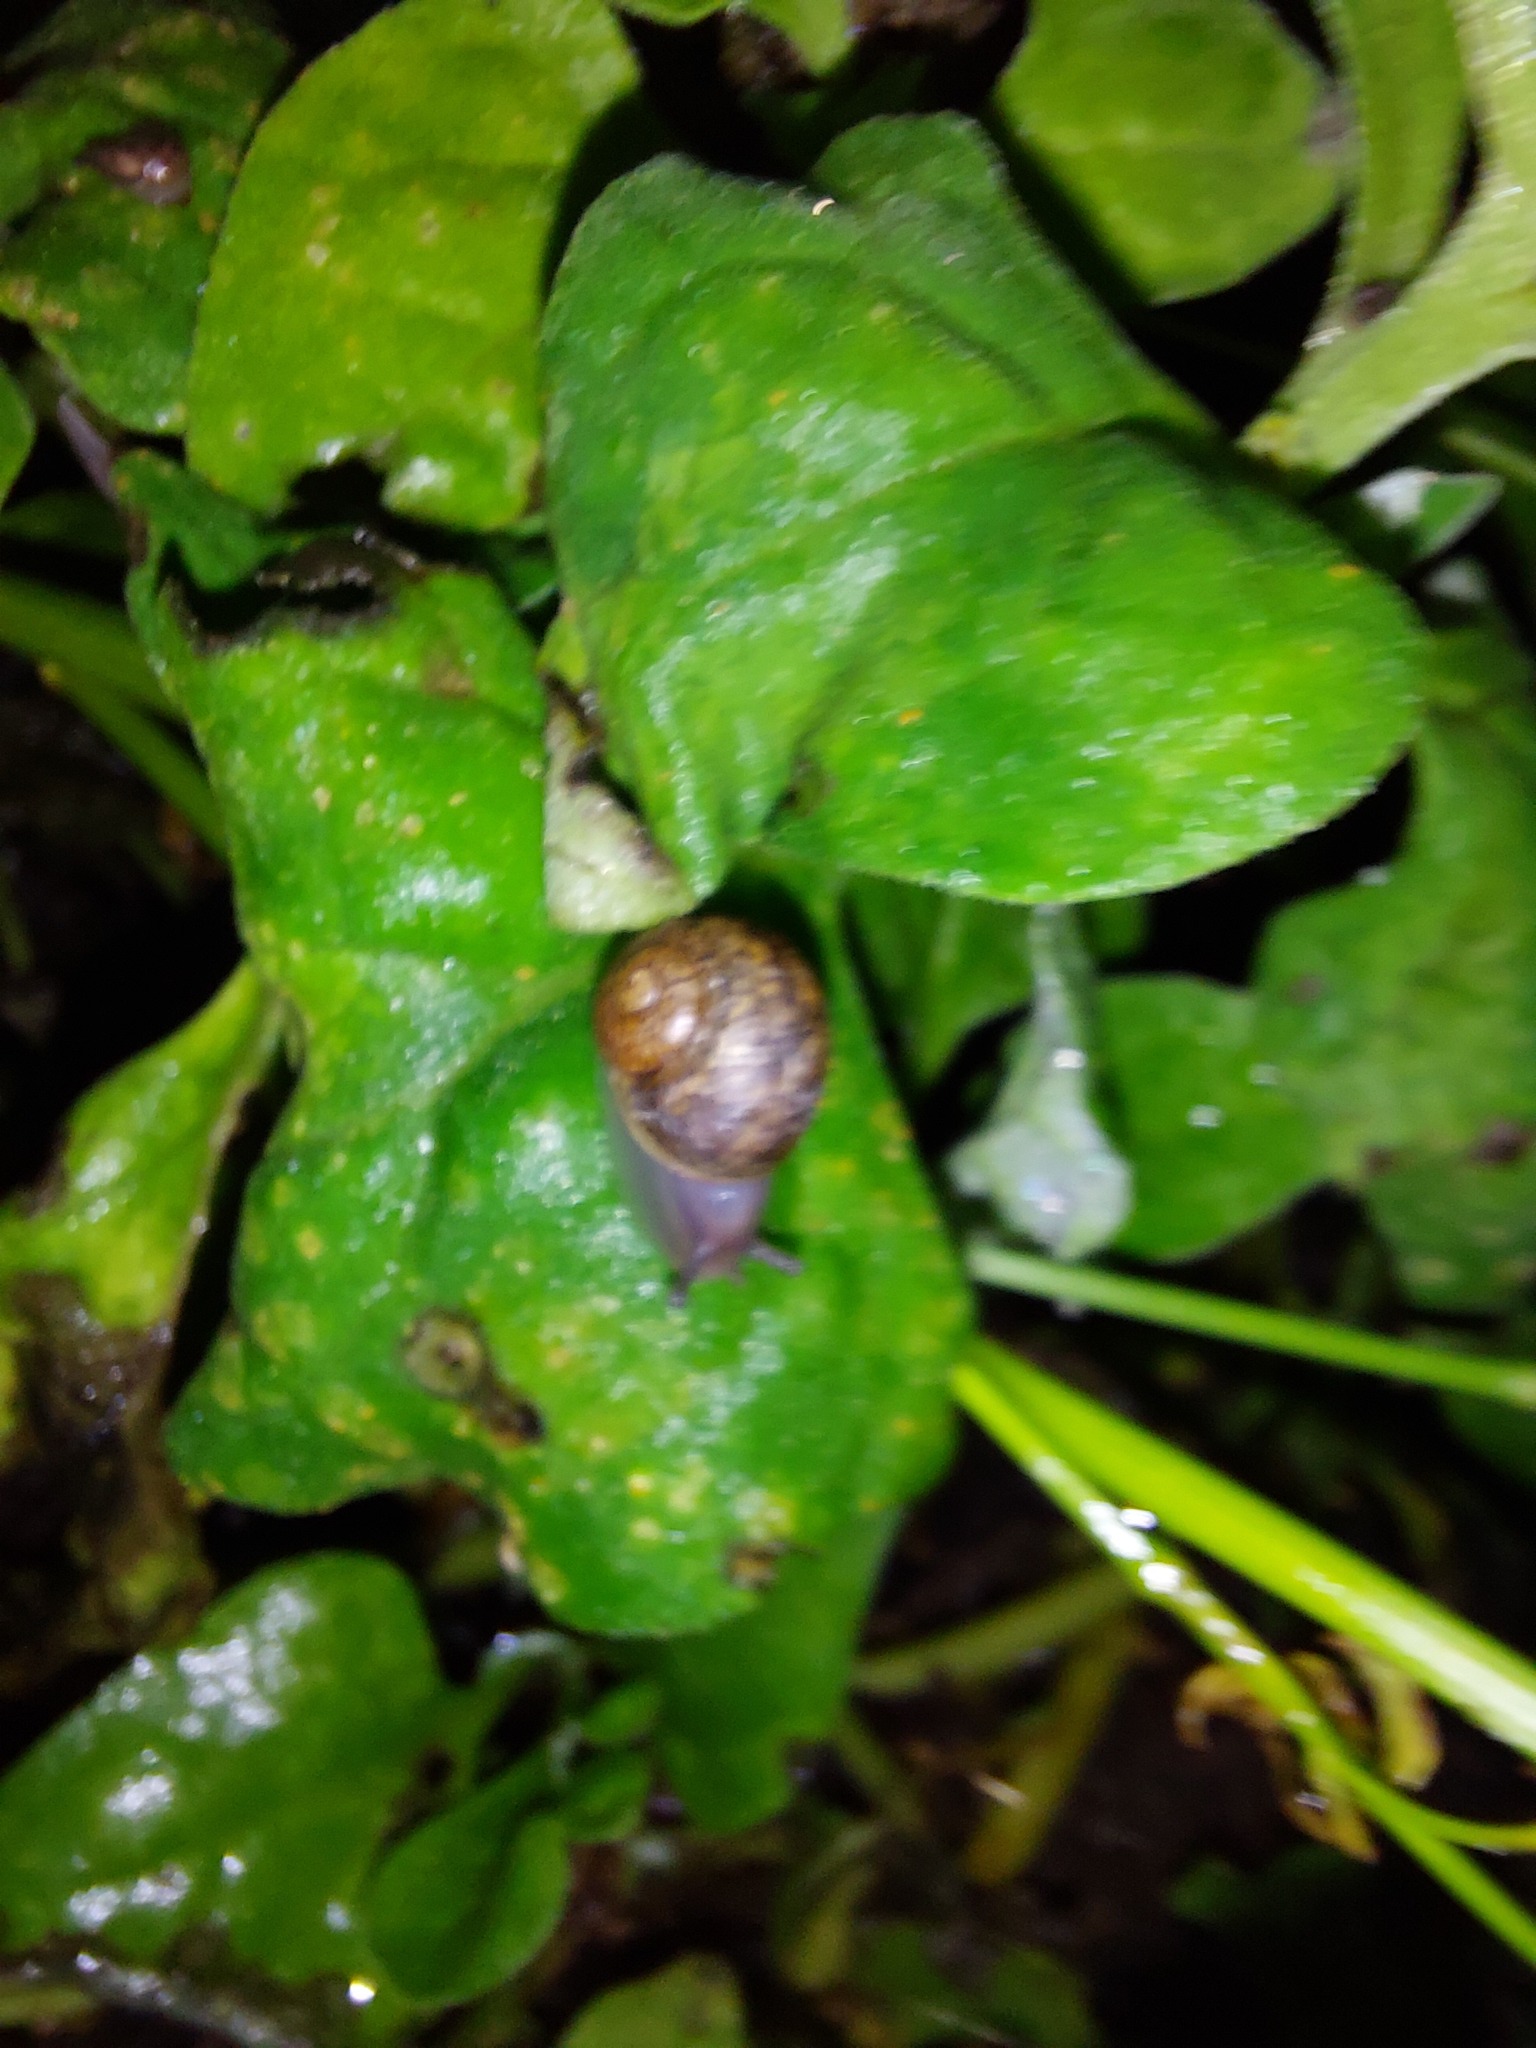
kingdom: Animalia
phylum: Mollusca
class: Gastropoda
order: Stylommatophora
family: Helicidae
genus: Cornu
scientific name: Cornu aspersum
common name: Brown garden snail
